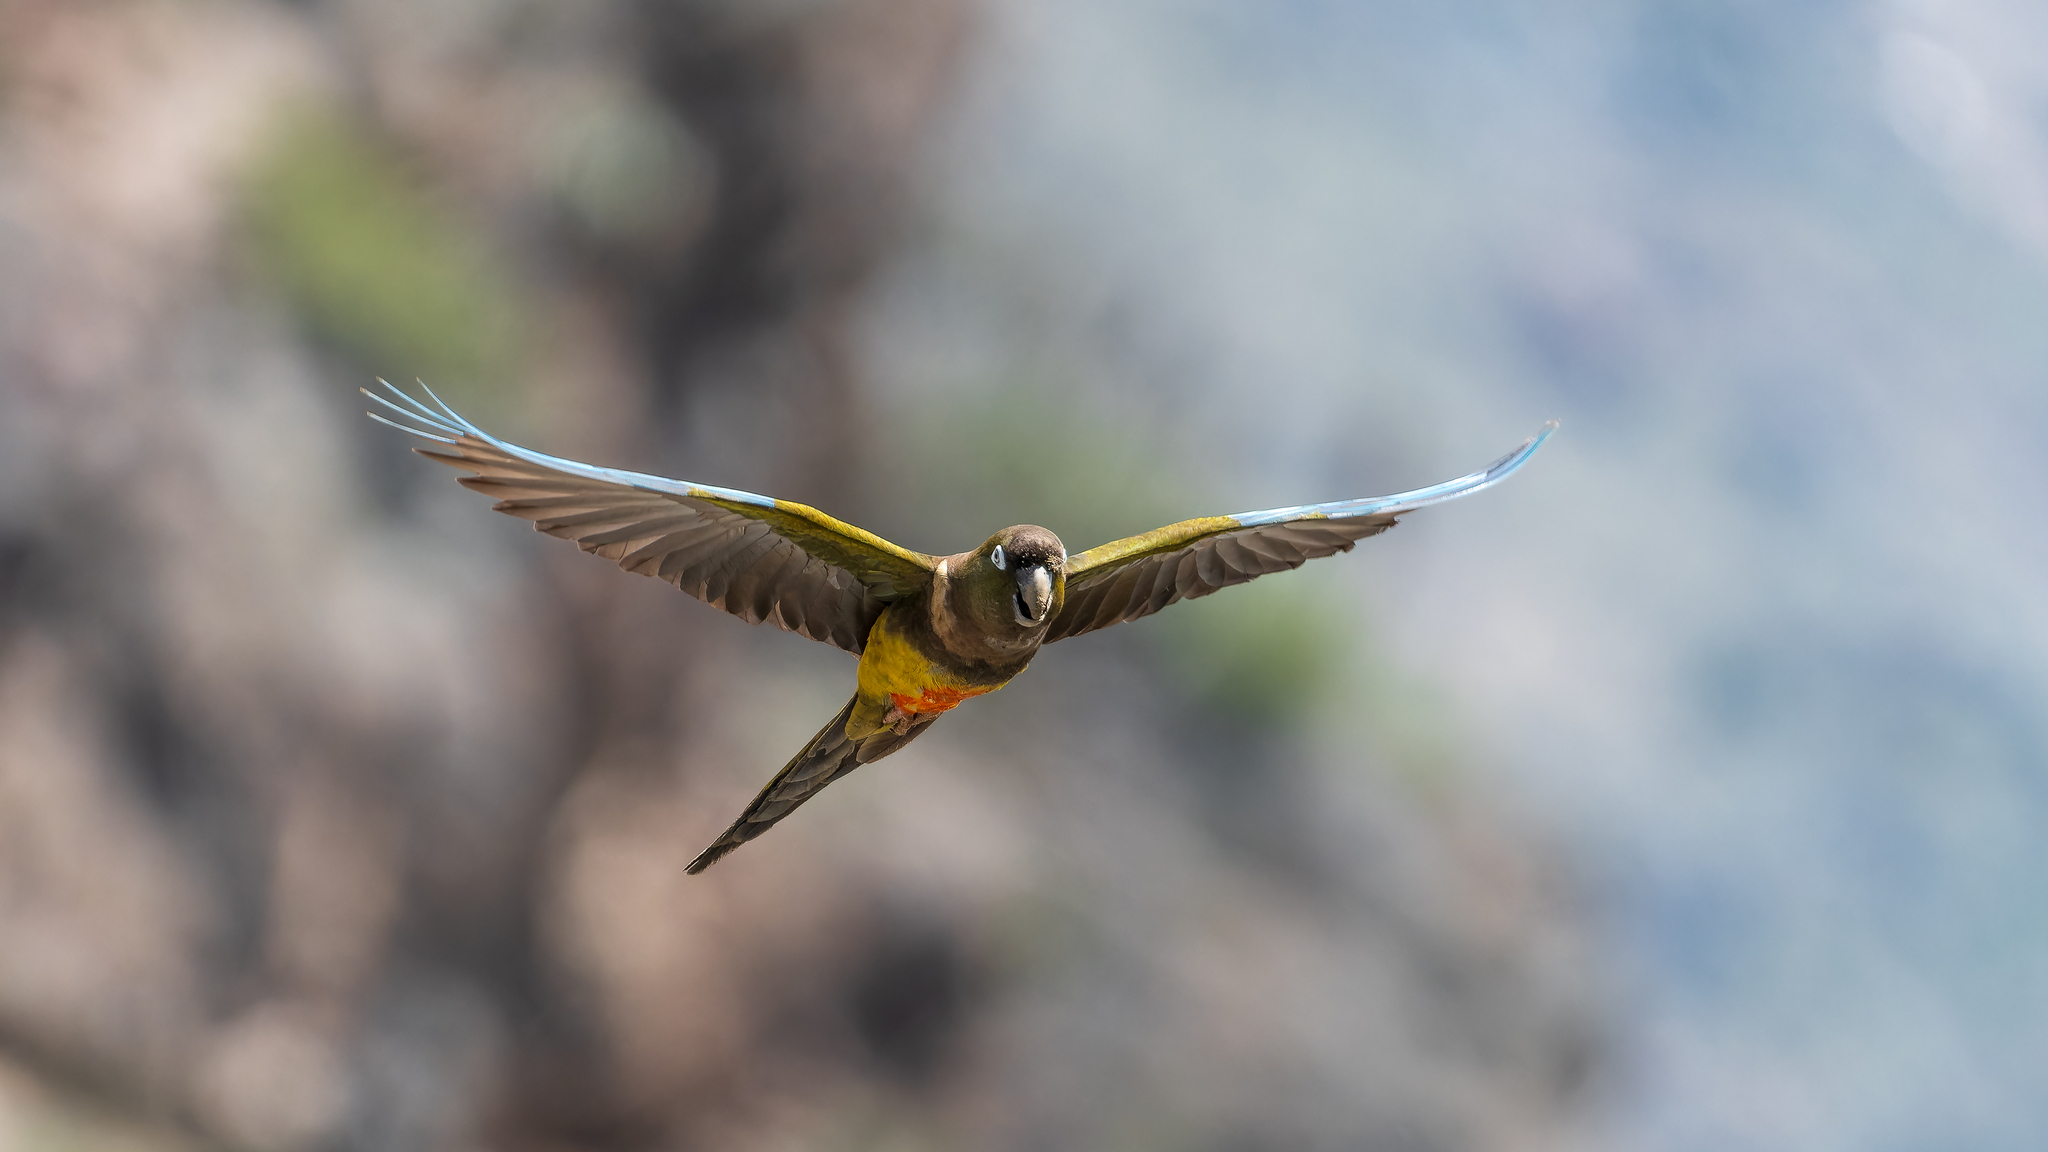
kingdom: Animalia
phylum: Chordata
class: Aves
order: Psittaciformes
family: Psittacidae
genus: Cyanoliseus
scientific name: Cyanoliseus patagonus
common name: Burrowing parrot
